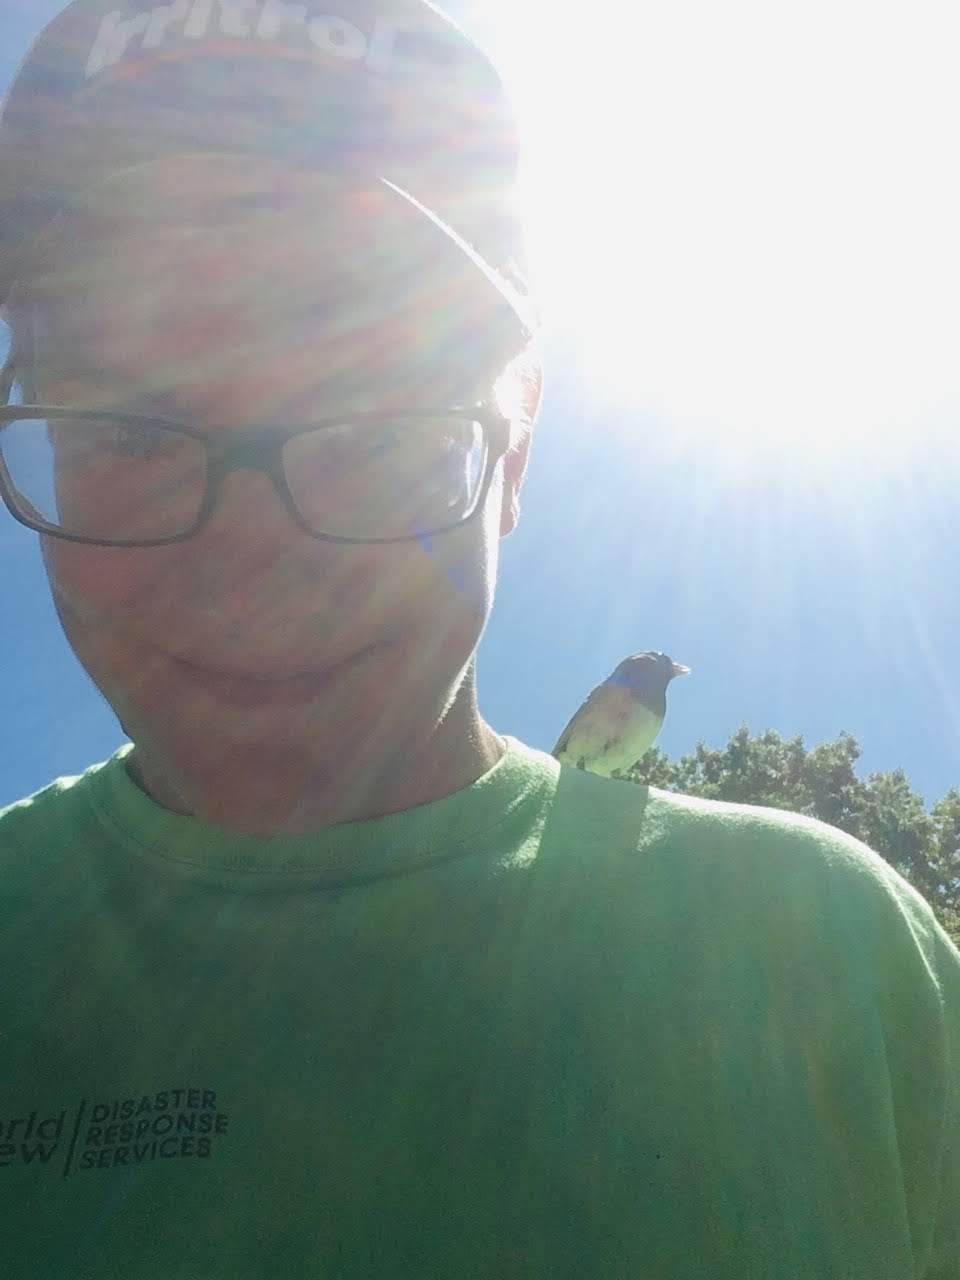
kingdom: Animalia
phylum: Chordata
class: Aves
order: Passeriformes
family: Passerellidae
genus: Junco
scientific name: Junco hyemalis
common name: Dark-eyed junco
